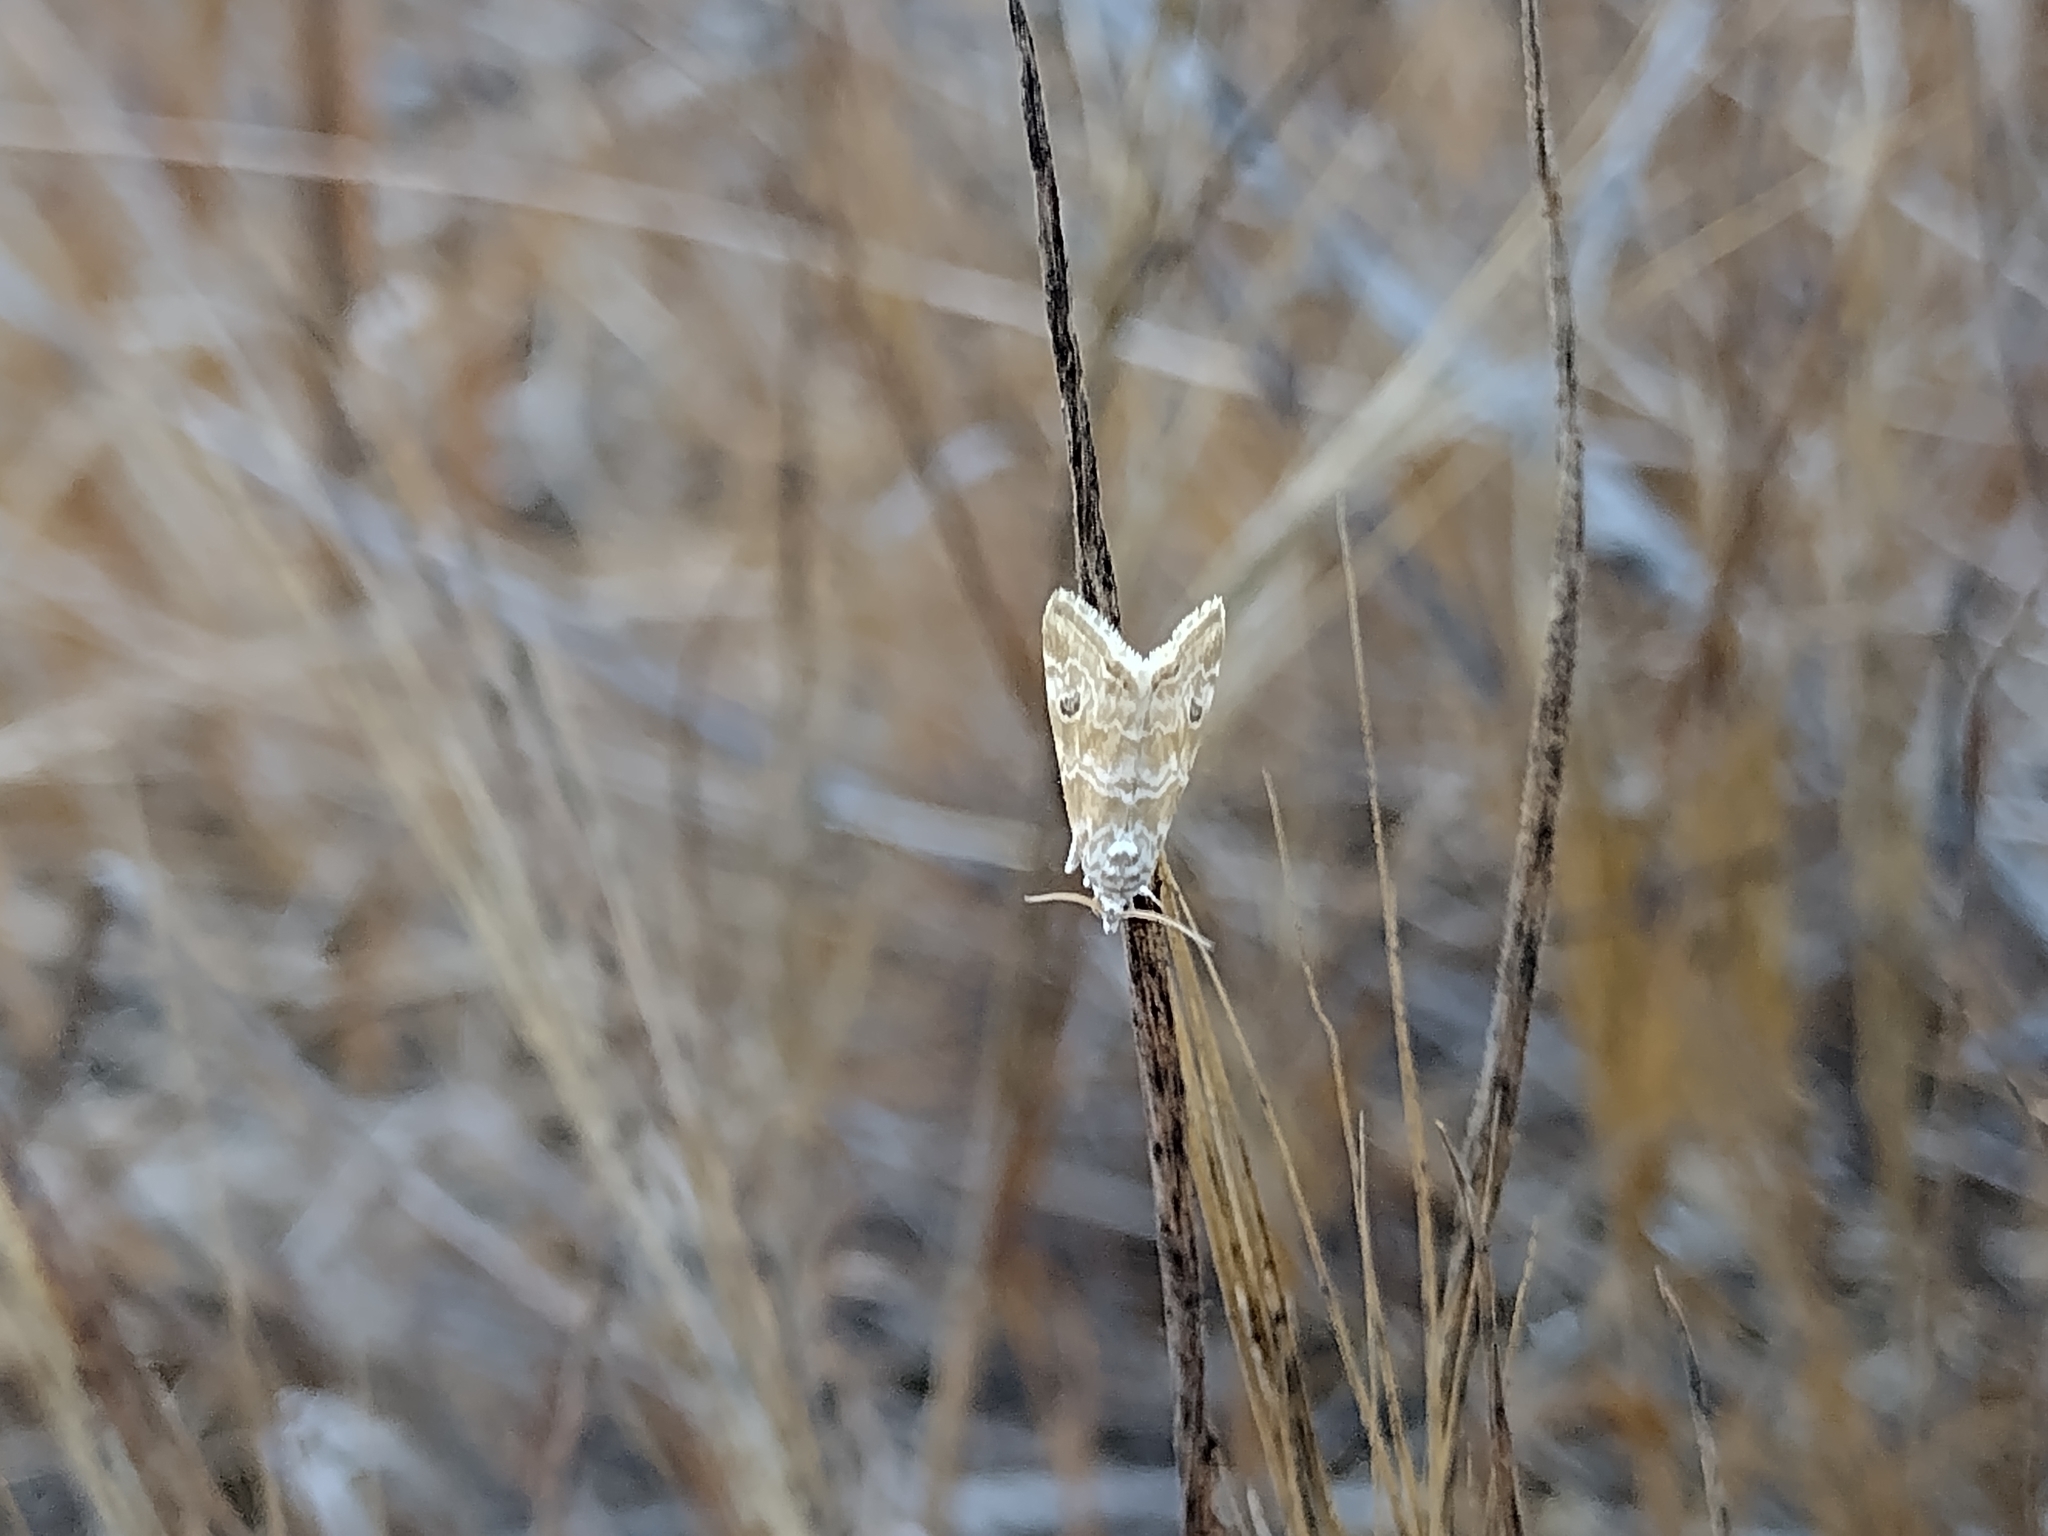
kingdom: Animalia
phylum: Arthropoda
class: Insecta
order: Lepidoptera
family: Crambidae
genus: Hellula
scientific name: Hellula rogatalis
